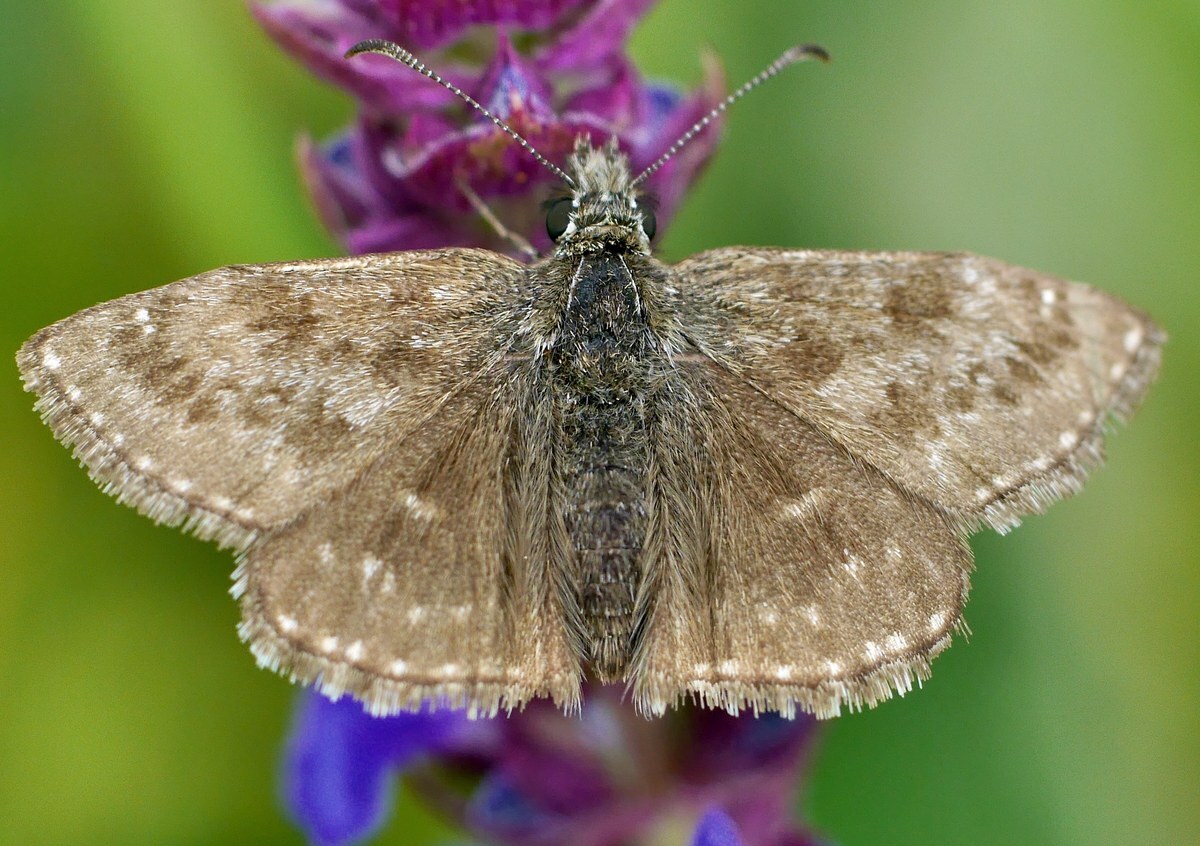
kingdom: Animalia
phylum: Arthropoda
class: Insecta
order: Lepidoptera
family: Hesperiidae
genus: Erynnis
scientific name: Erynnis tages
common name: Dingy skipper
